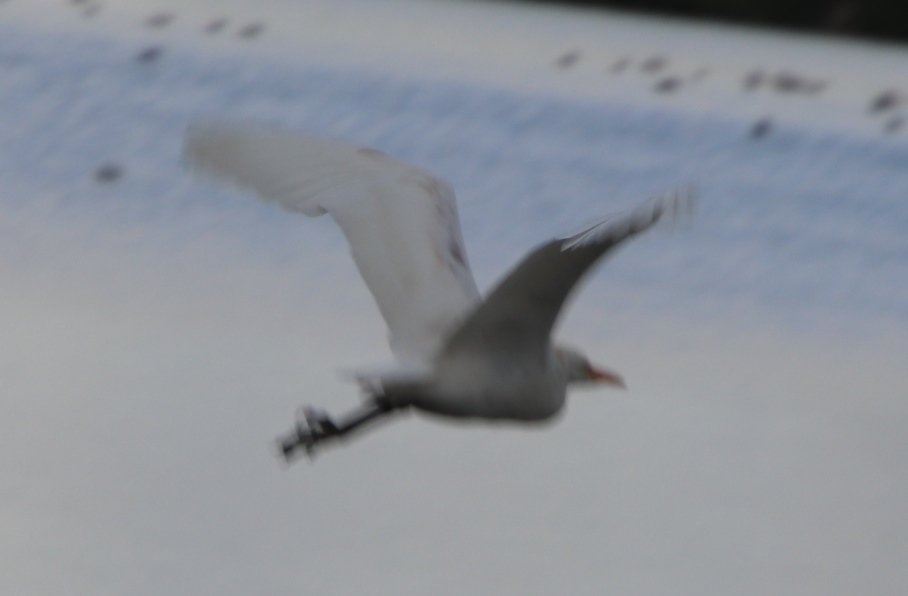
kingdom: Animalia
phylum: Chordata
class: Aves
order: Pelecaniformes
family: Ardeidae
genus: Bubulcus
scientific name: Bubulcus ibis
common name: Cattle egret
